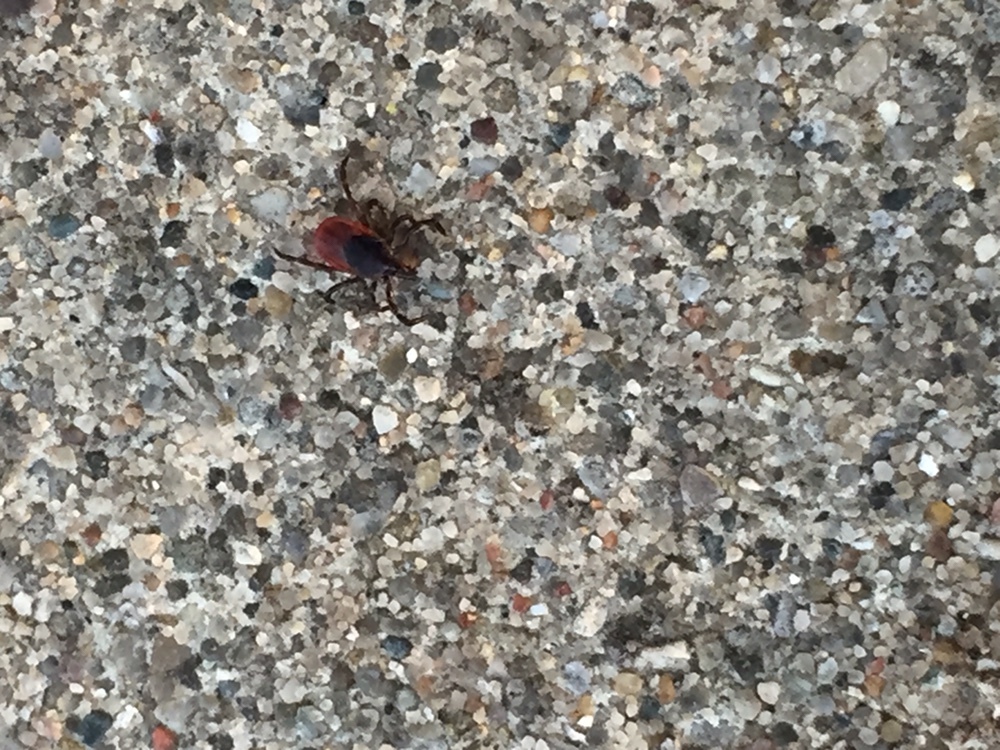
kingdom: Animalia
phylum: Arthropoda
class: Arachnida
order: Ixodida
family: Ixodidae
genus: Ixodes
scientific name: Ixodes scapularis
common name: Black legged tick
